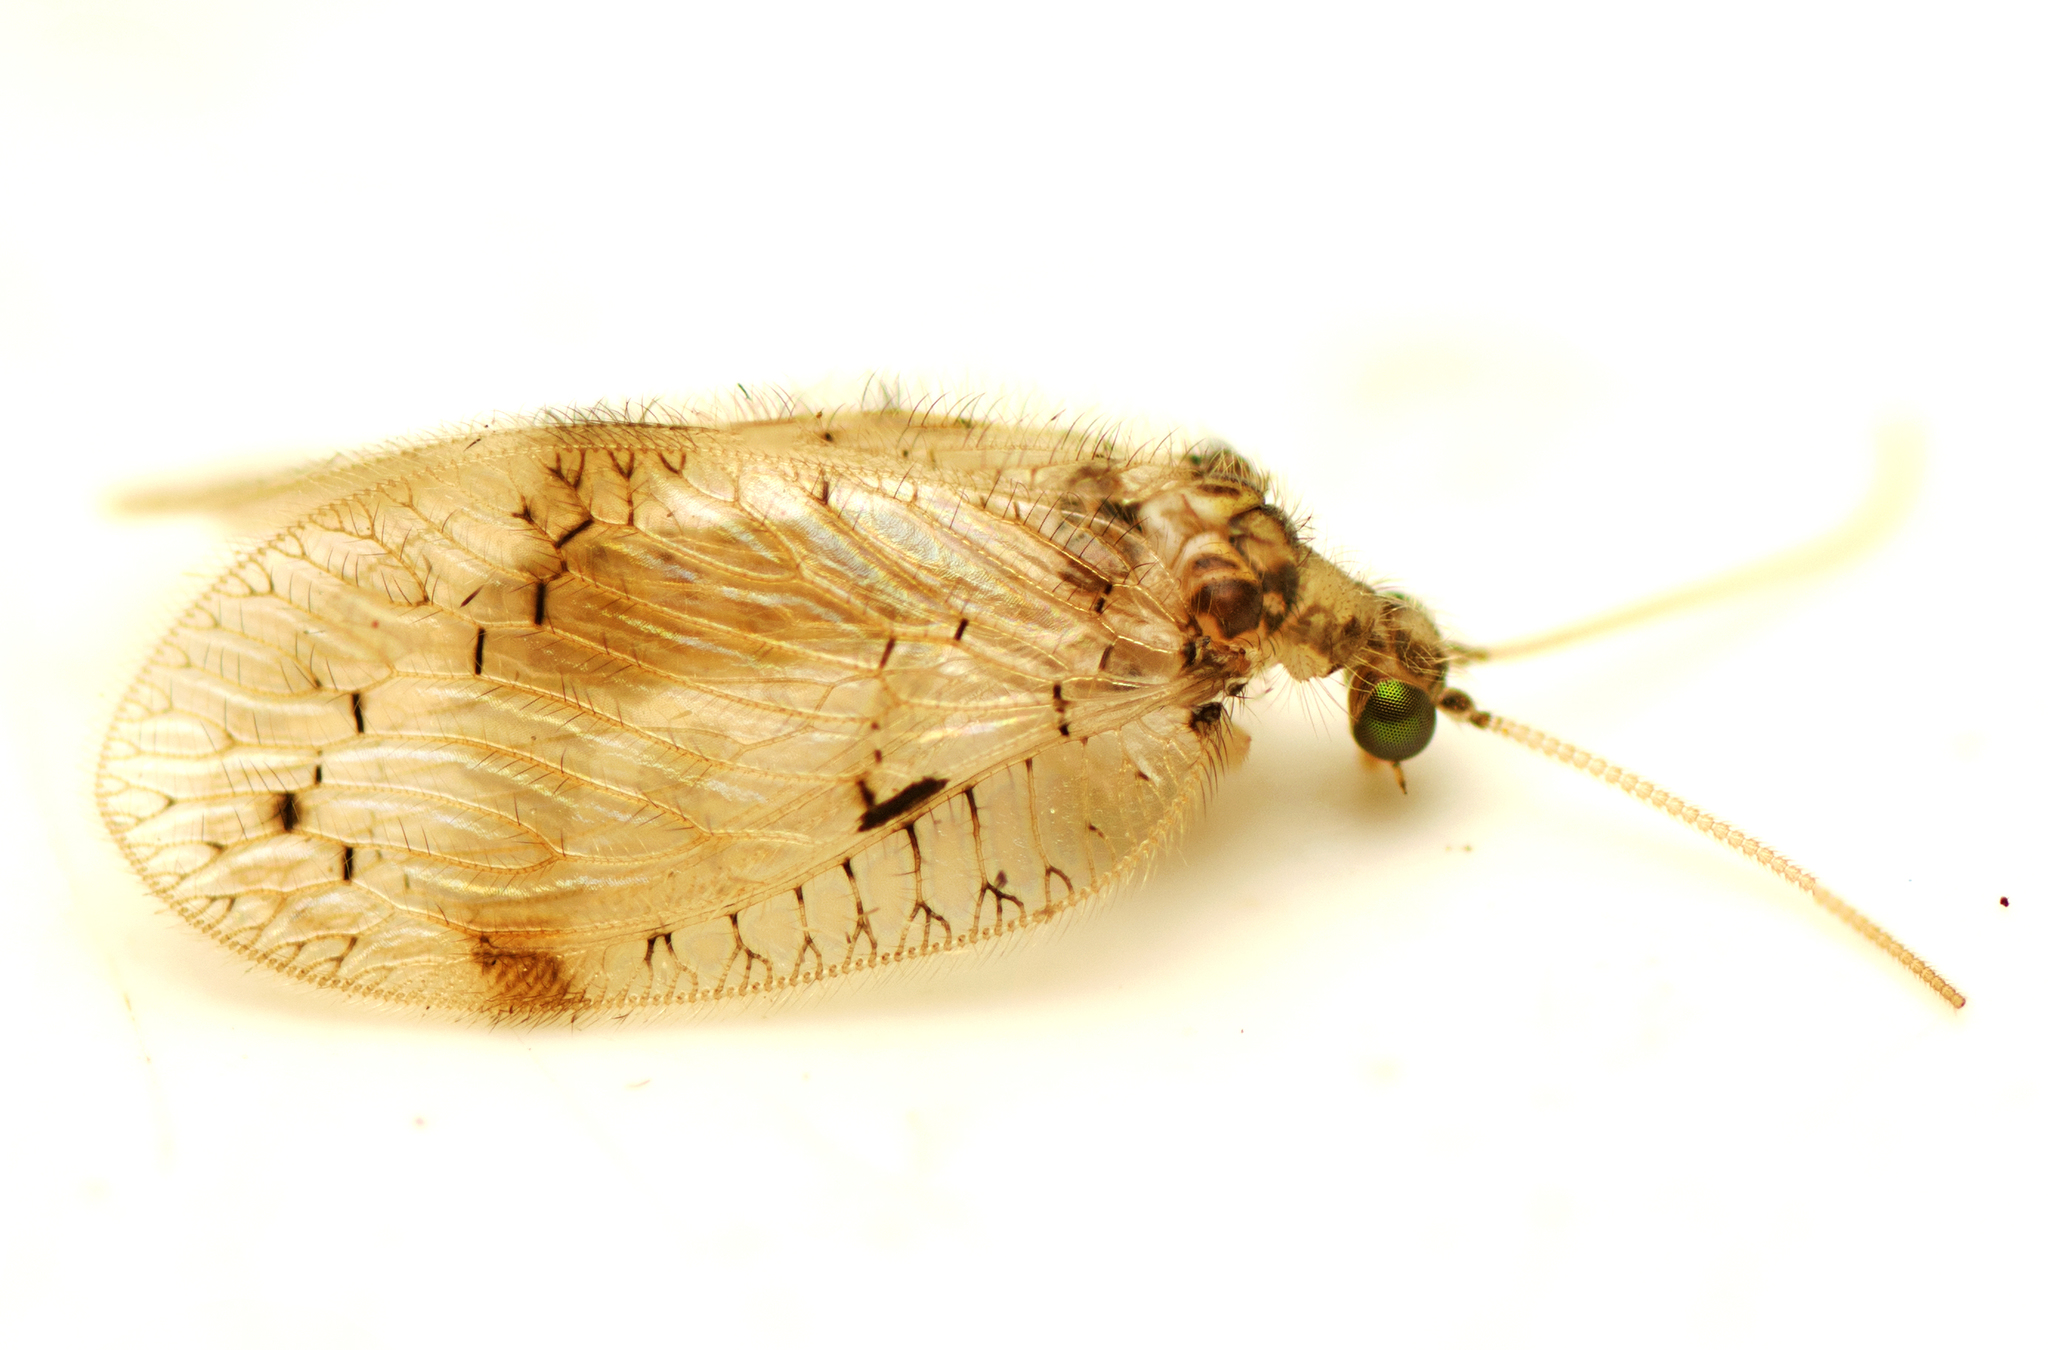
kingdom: Animalia
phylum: Arthropoda
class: Insecta
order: Neuroptera
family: Hemerobiidae
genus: Carobius
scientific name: Carobius pulchellus
